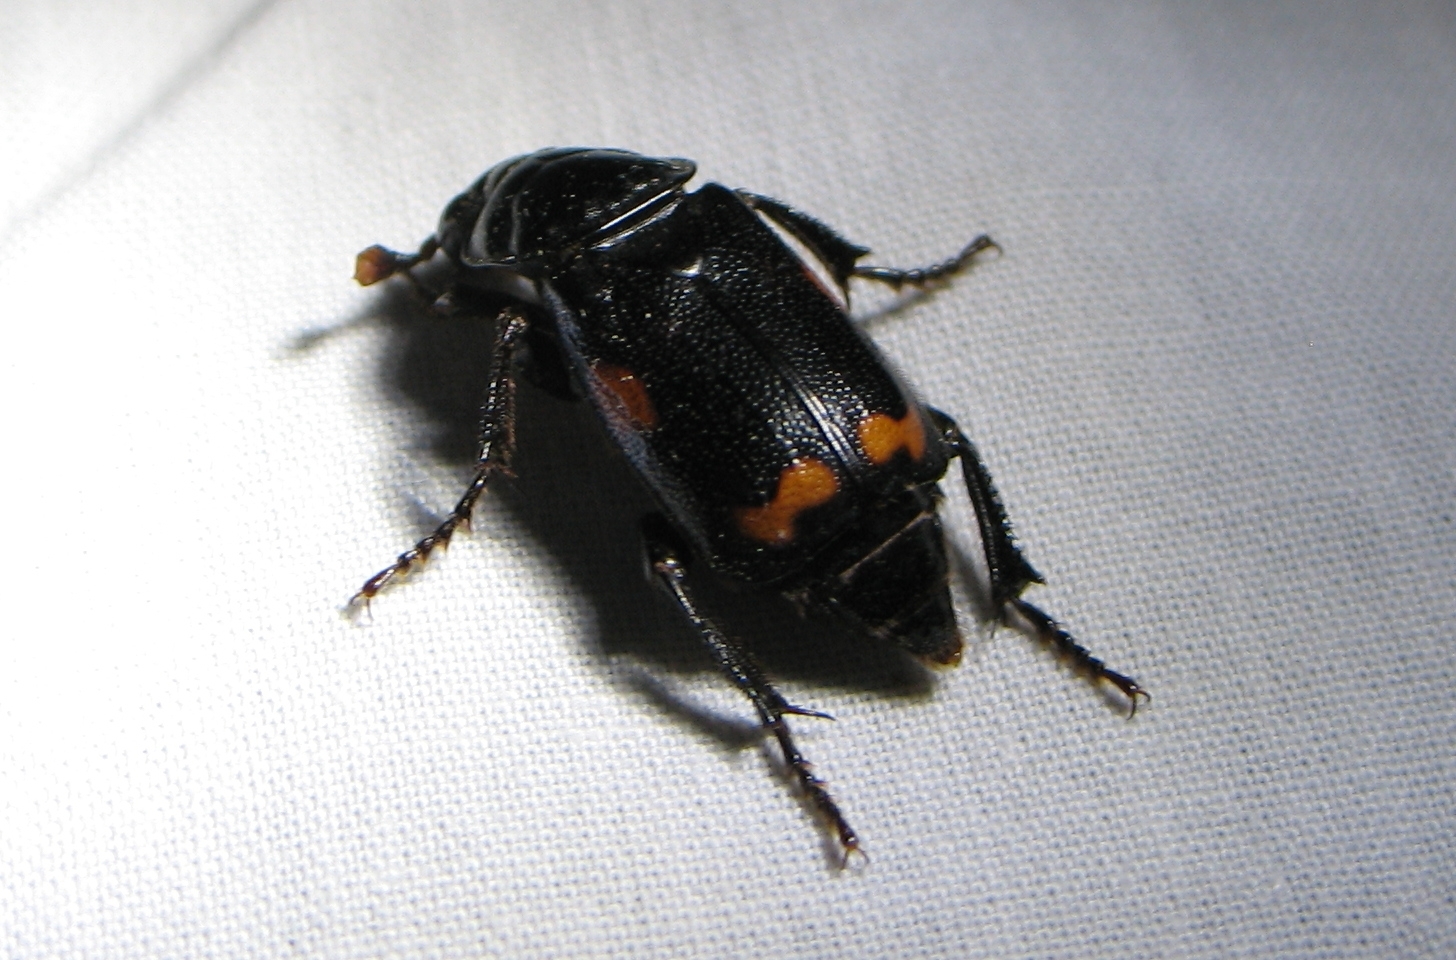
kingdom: Animalia
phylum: Arthropoda
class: Insecta
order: Coleoptera
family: Staphylinidae
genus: Nicrophorus
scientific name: Nicrophorus pustulatus
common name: Pustulated carrion beetle
